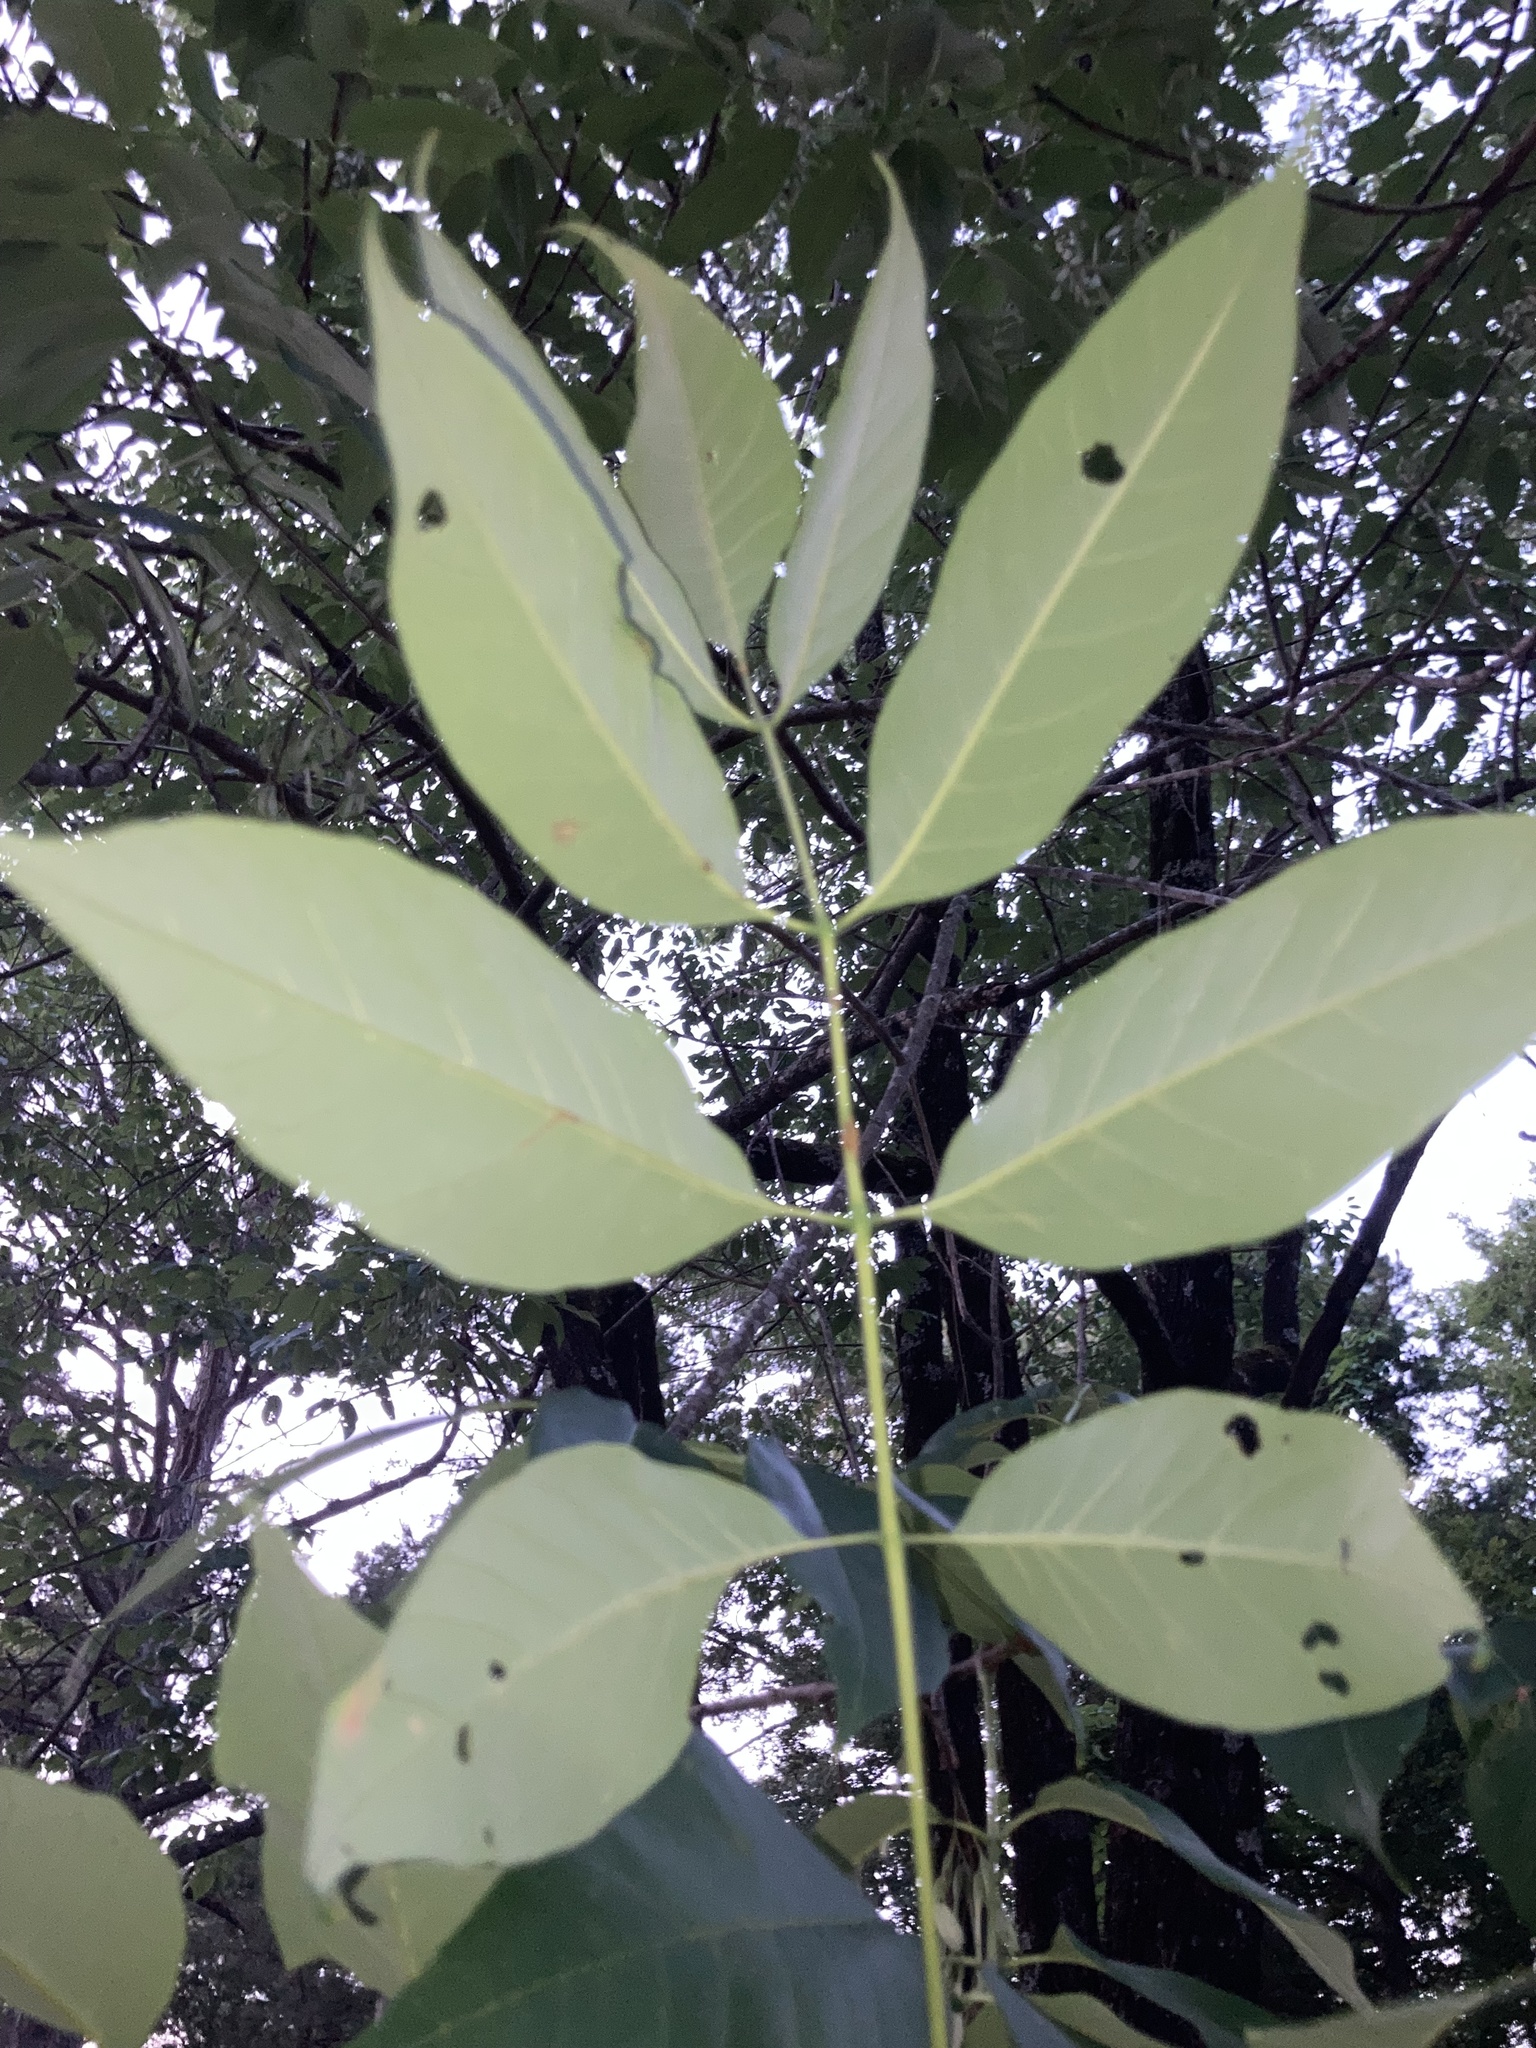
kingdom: Plantae
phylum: Tracheophyta
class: Magnoliopsida
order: Lamiales
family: Oleaceae
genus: Fraxinus
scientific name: Fraxinus americana
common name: White ash
